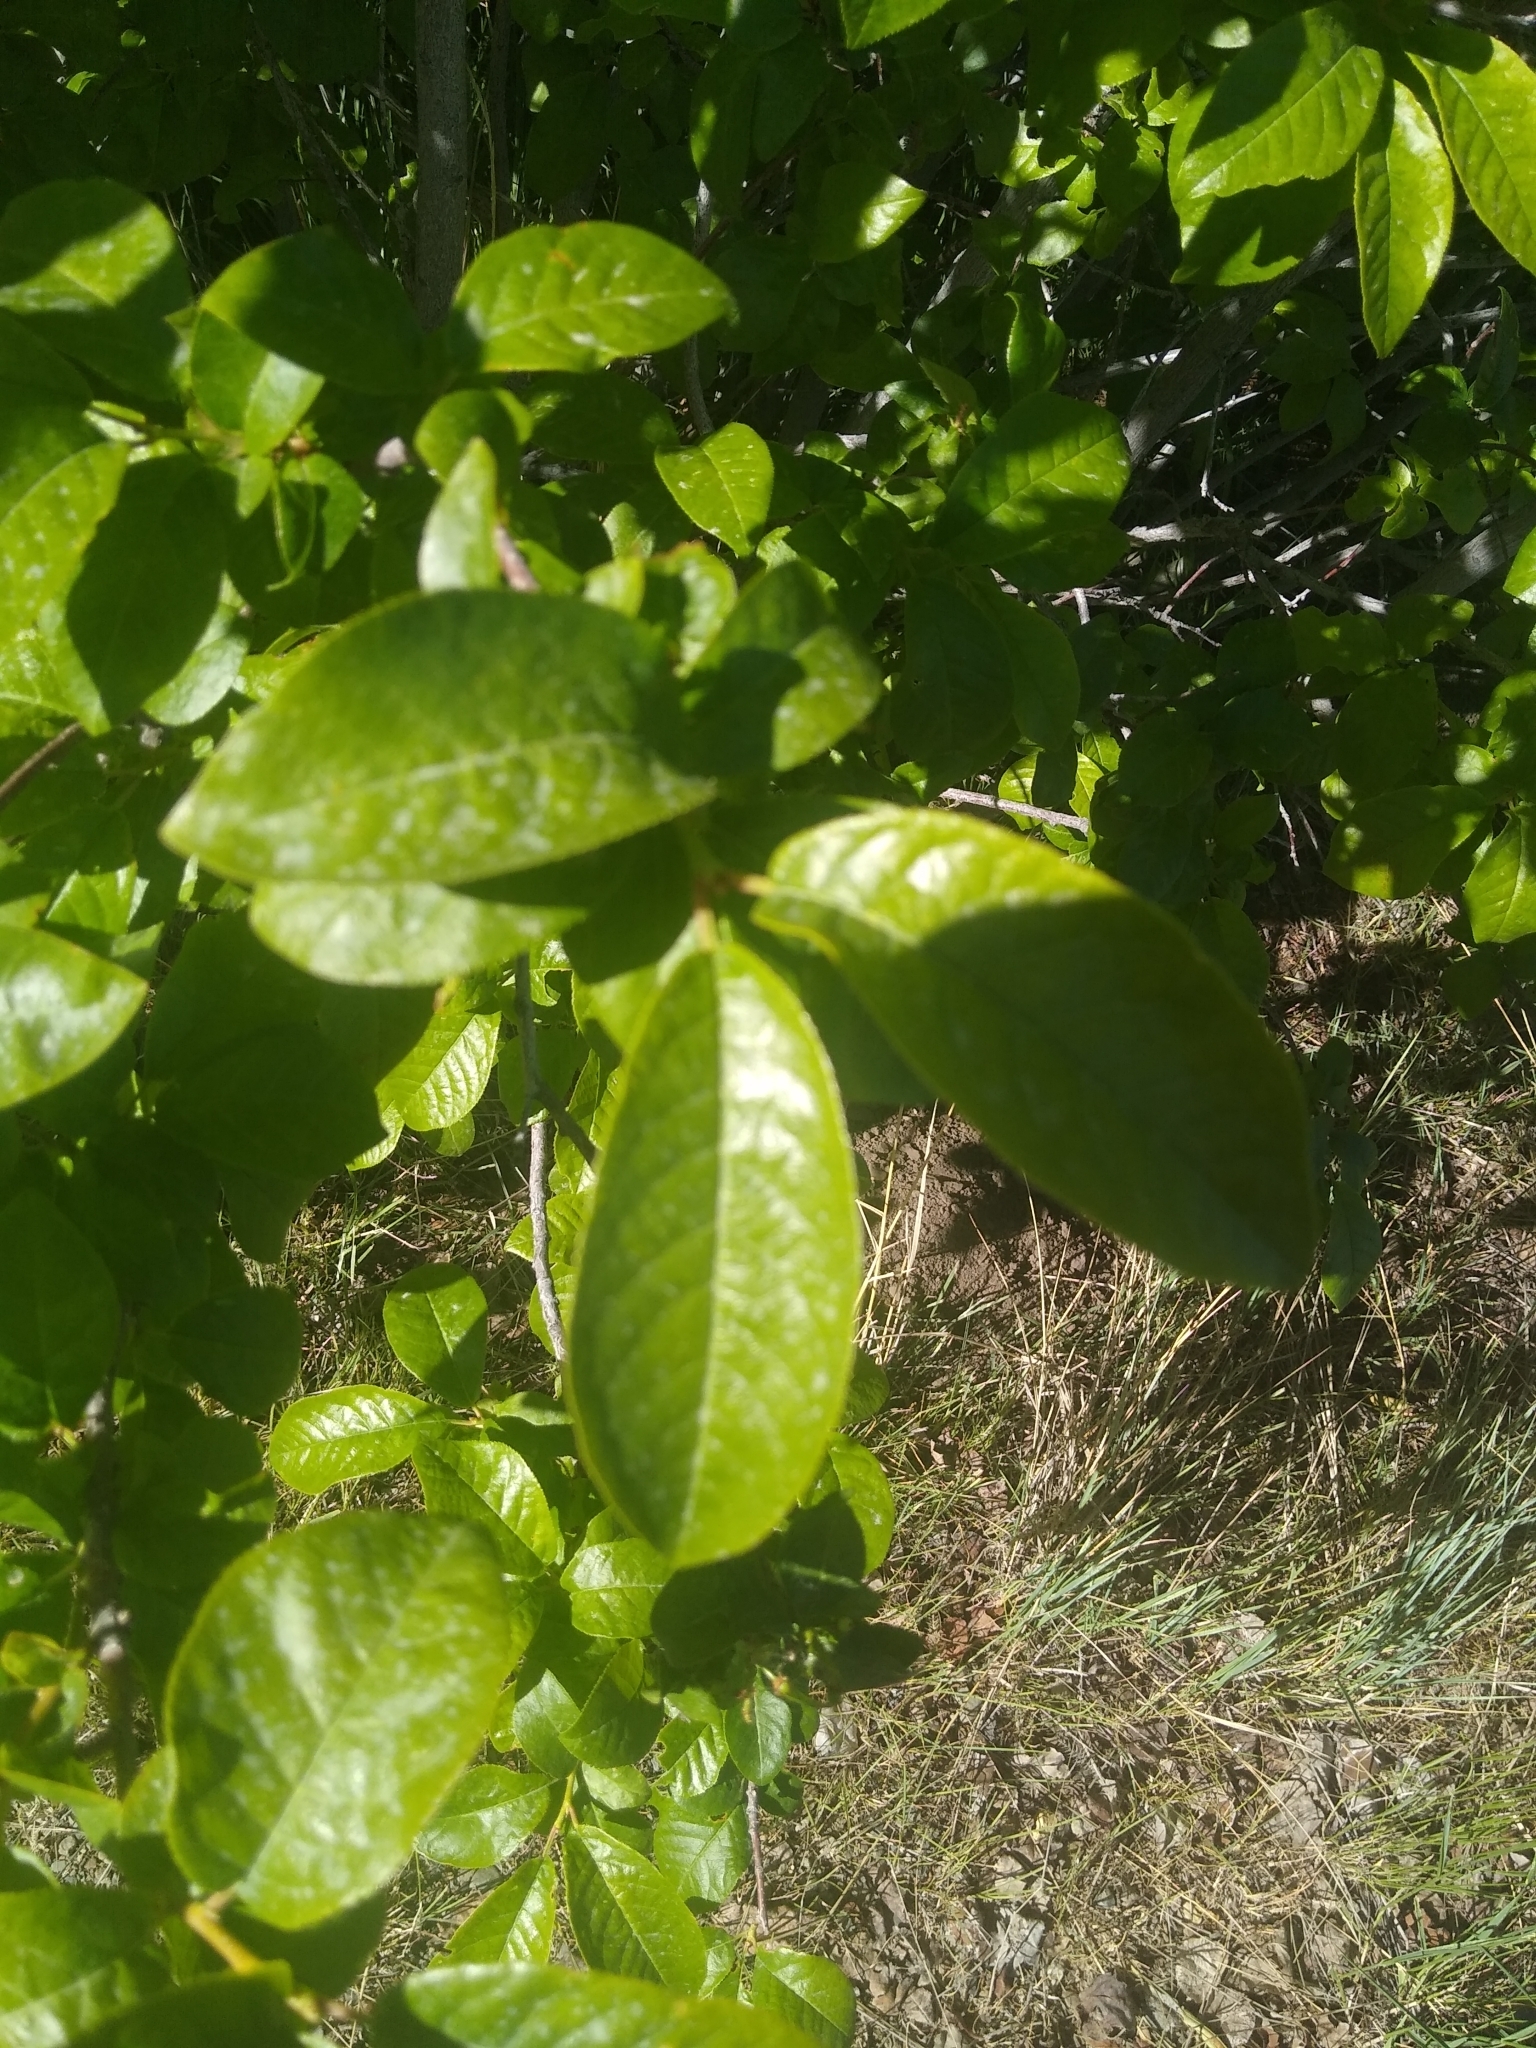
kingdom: Plantae
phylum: Tracheophyta
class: Magnoliopsida
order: Rosales
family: Rosaceae
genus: Prunus
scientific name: Prunus virginiana
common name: Chokecherry
